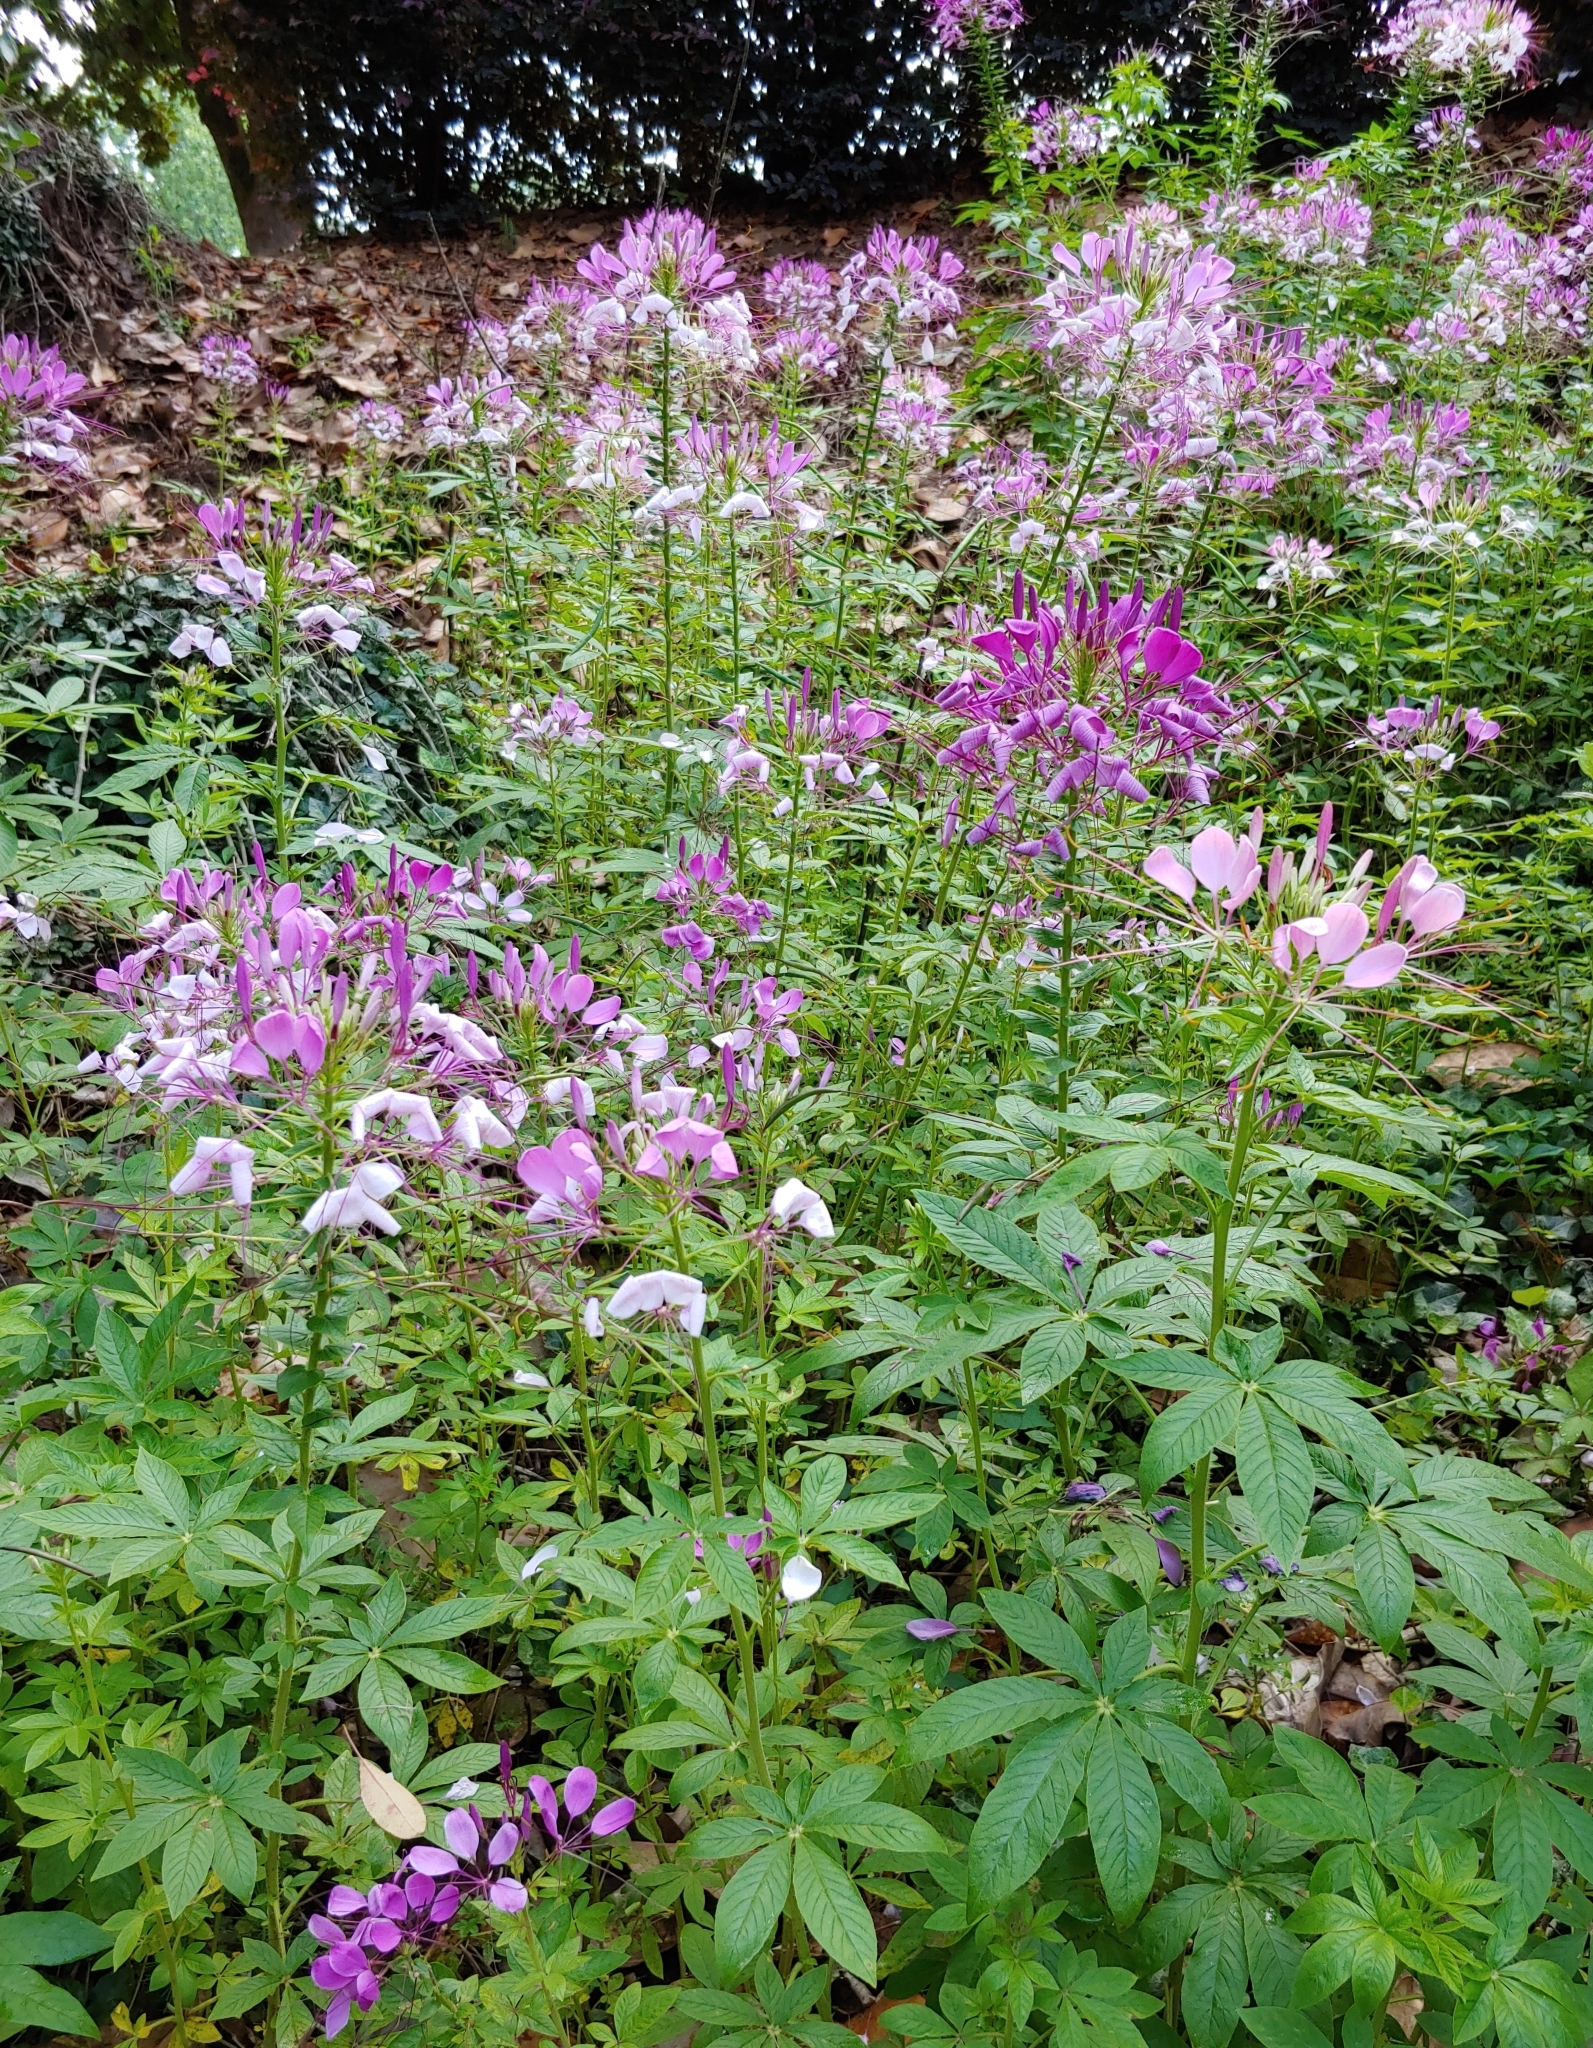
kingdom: Plantae
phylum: Tracheophyta
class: Magnoliopsida
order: Brassicales
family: Cleomaceae
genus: Tarenaya
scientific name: Tarenaya houtteana
